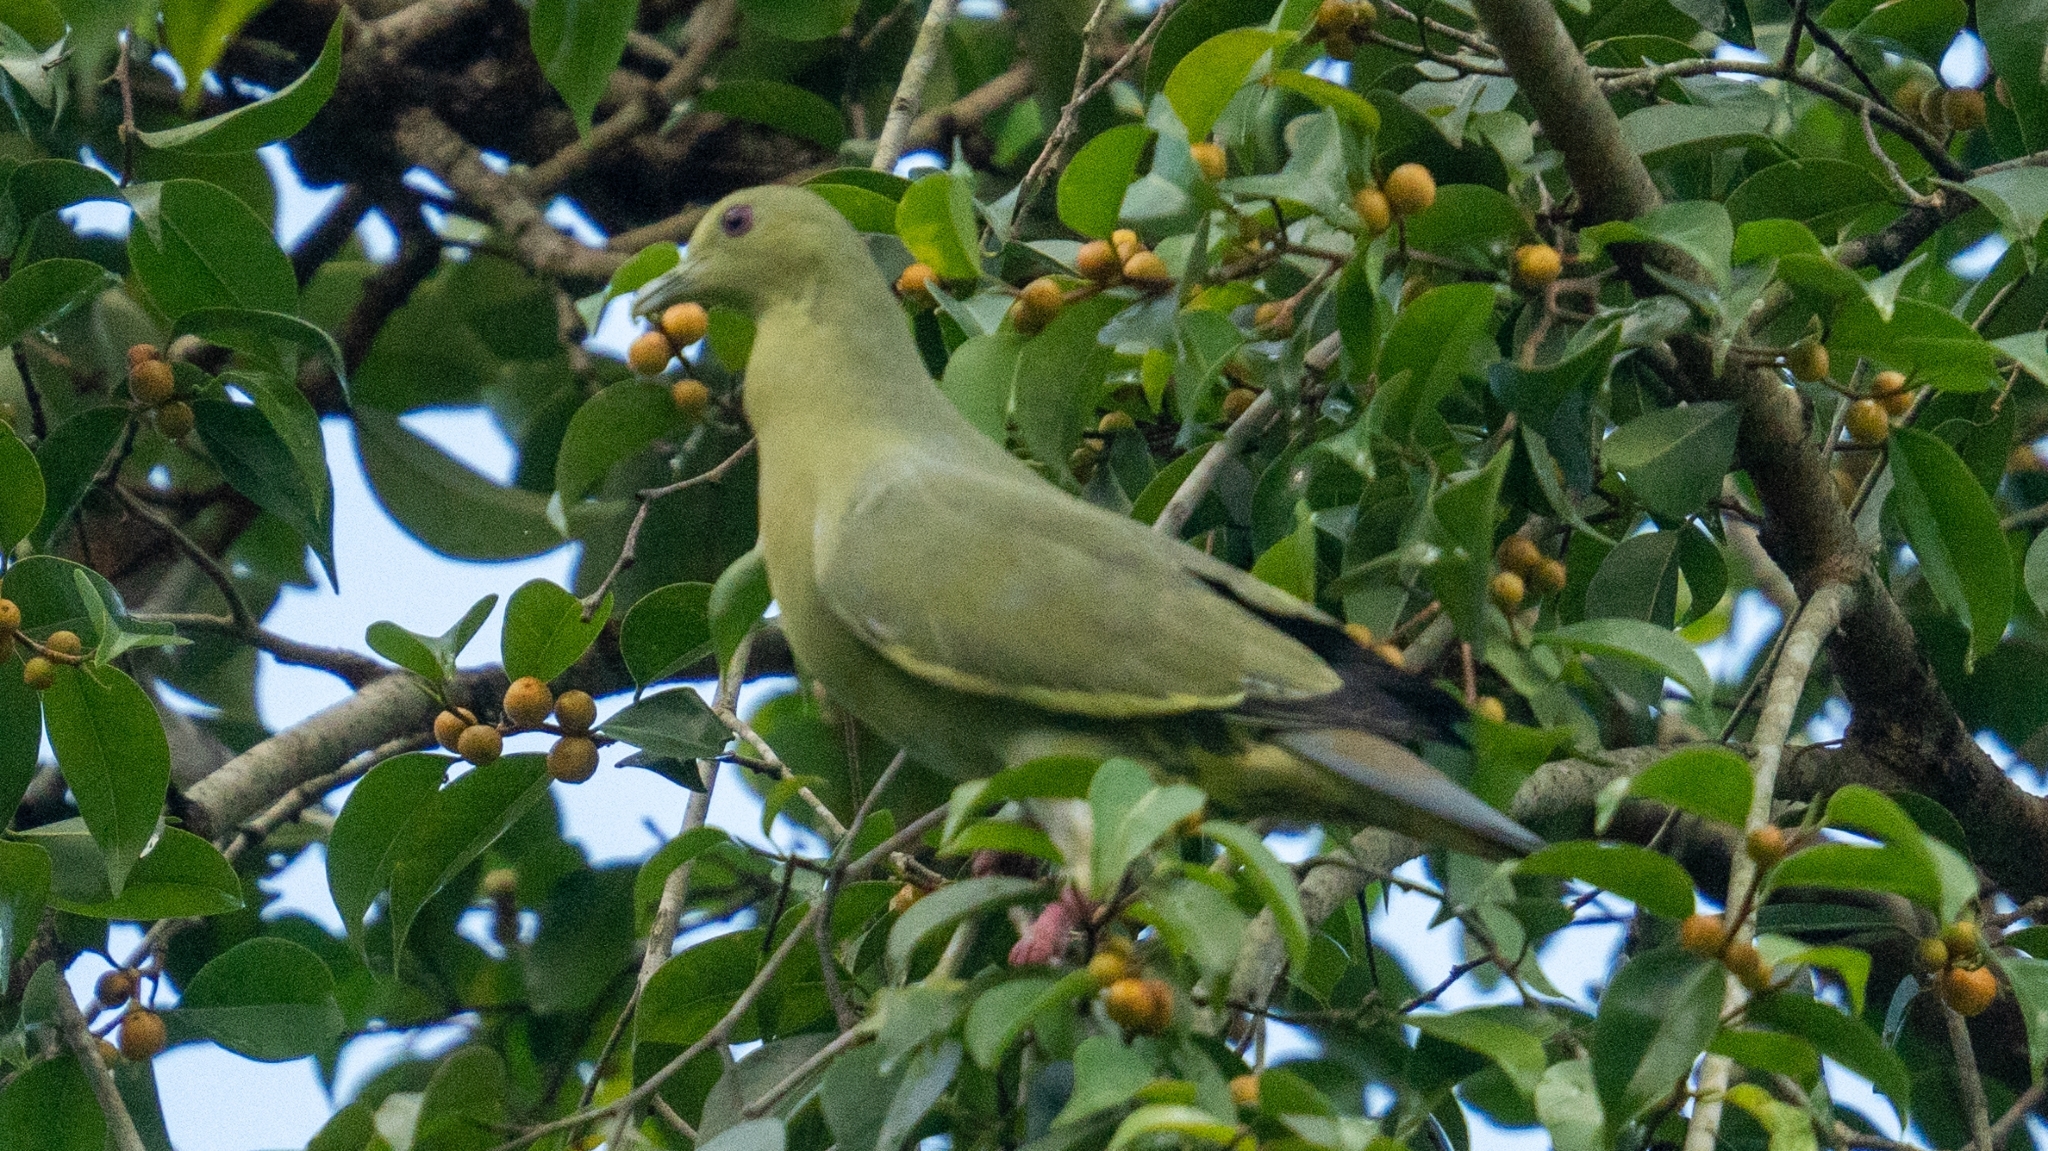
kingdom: Animalia
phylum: Chordata
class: Aves
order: Columbiformes
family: Columbidae
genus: Treron
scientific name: Treron vernans
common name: Pink-necked green pigeon
